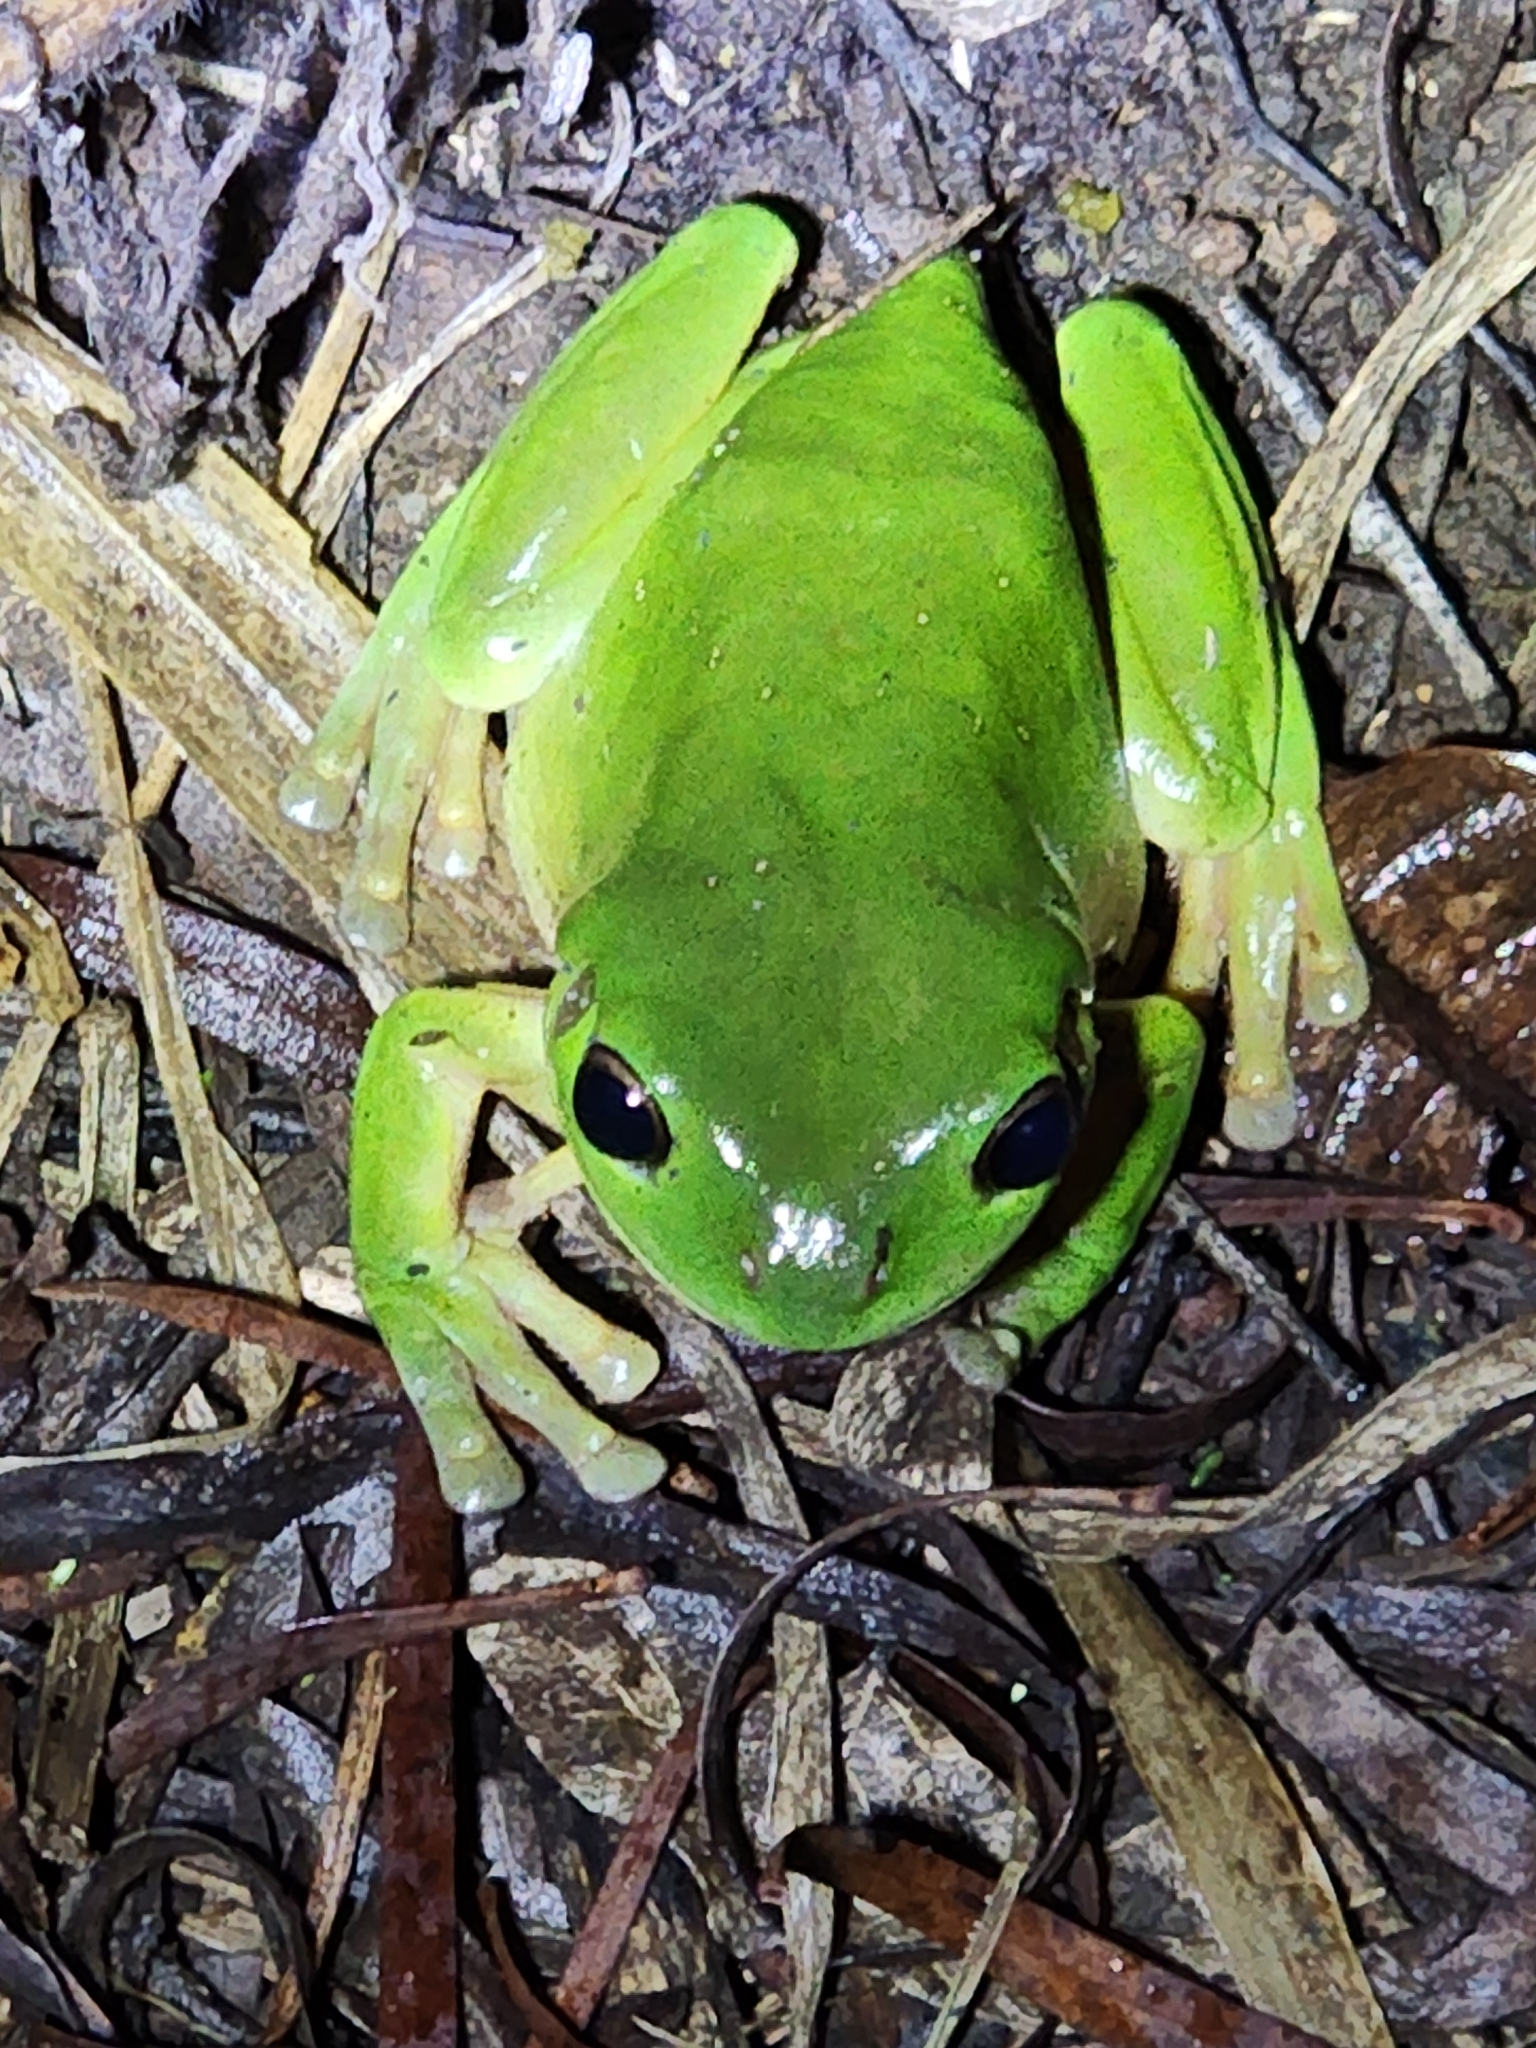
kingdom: Animalia
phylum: Chordata
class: Amphibia
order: Anura
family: Pelodryadidae
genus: Ranoidea
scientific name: Ranoidea caerulea
